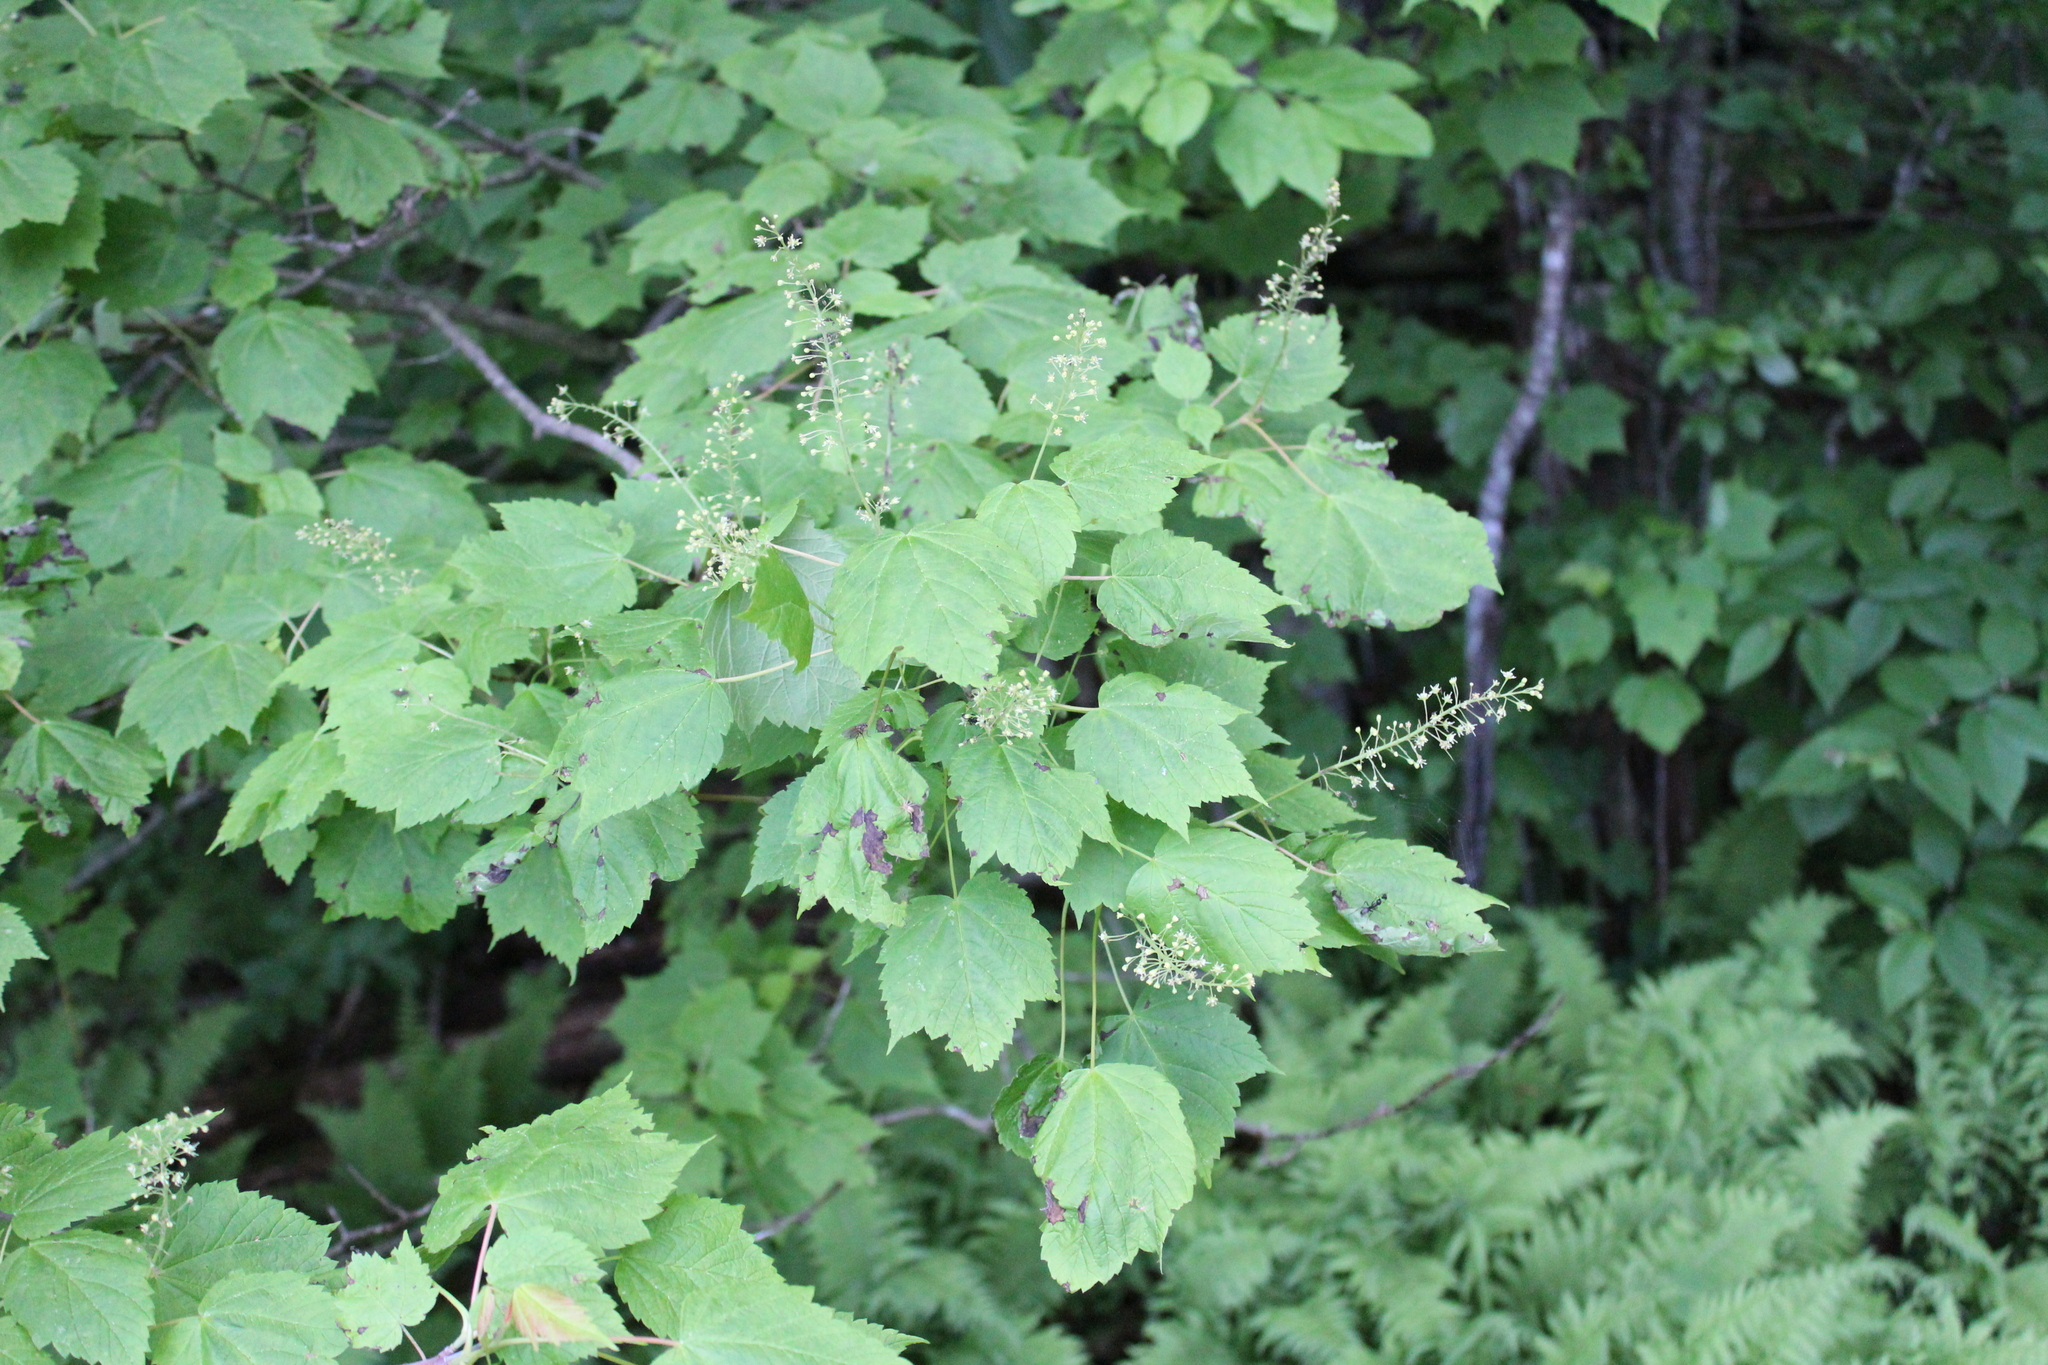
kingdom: Plantae
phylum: Tracheophyta
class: Magnoliopsida
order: Sapindales
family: Sapindaceae
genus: Acer
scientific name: Acer spicatum
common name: Mountain maple
